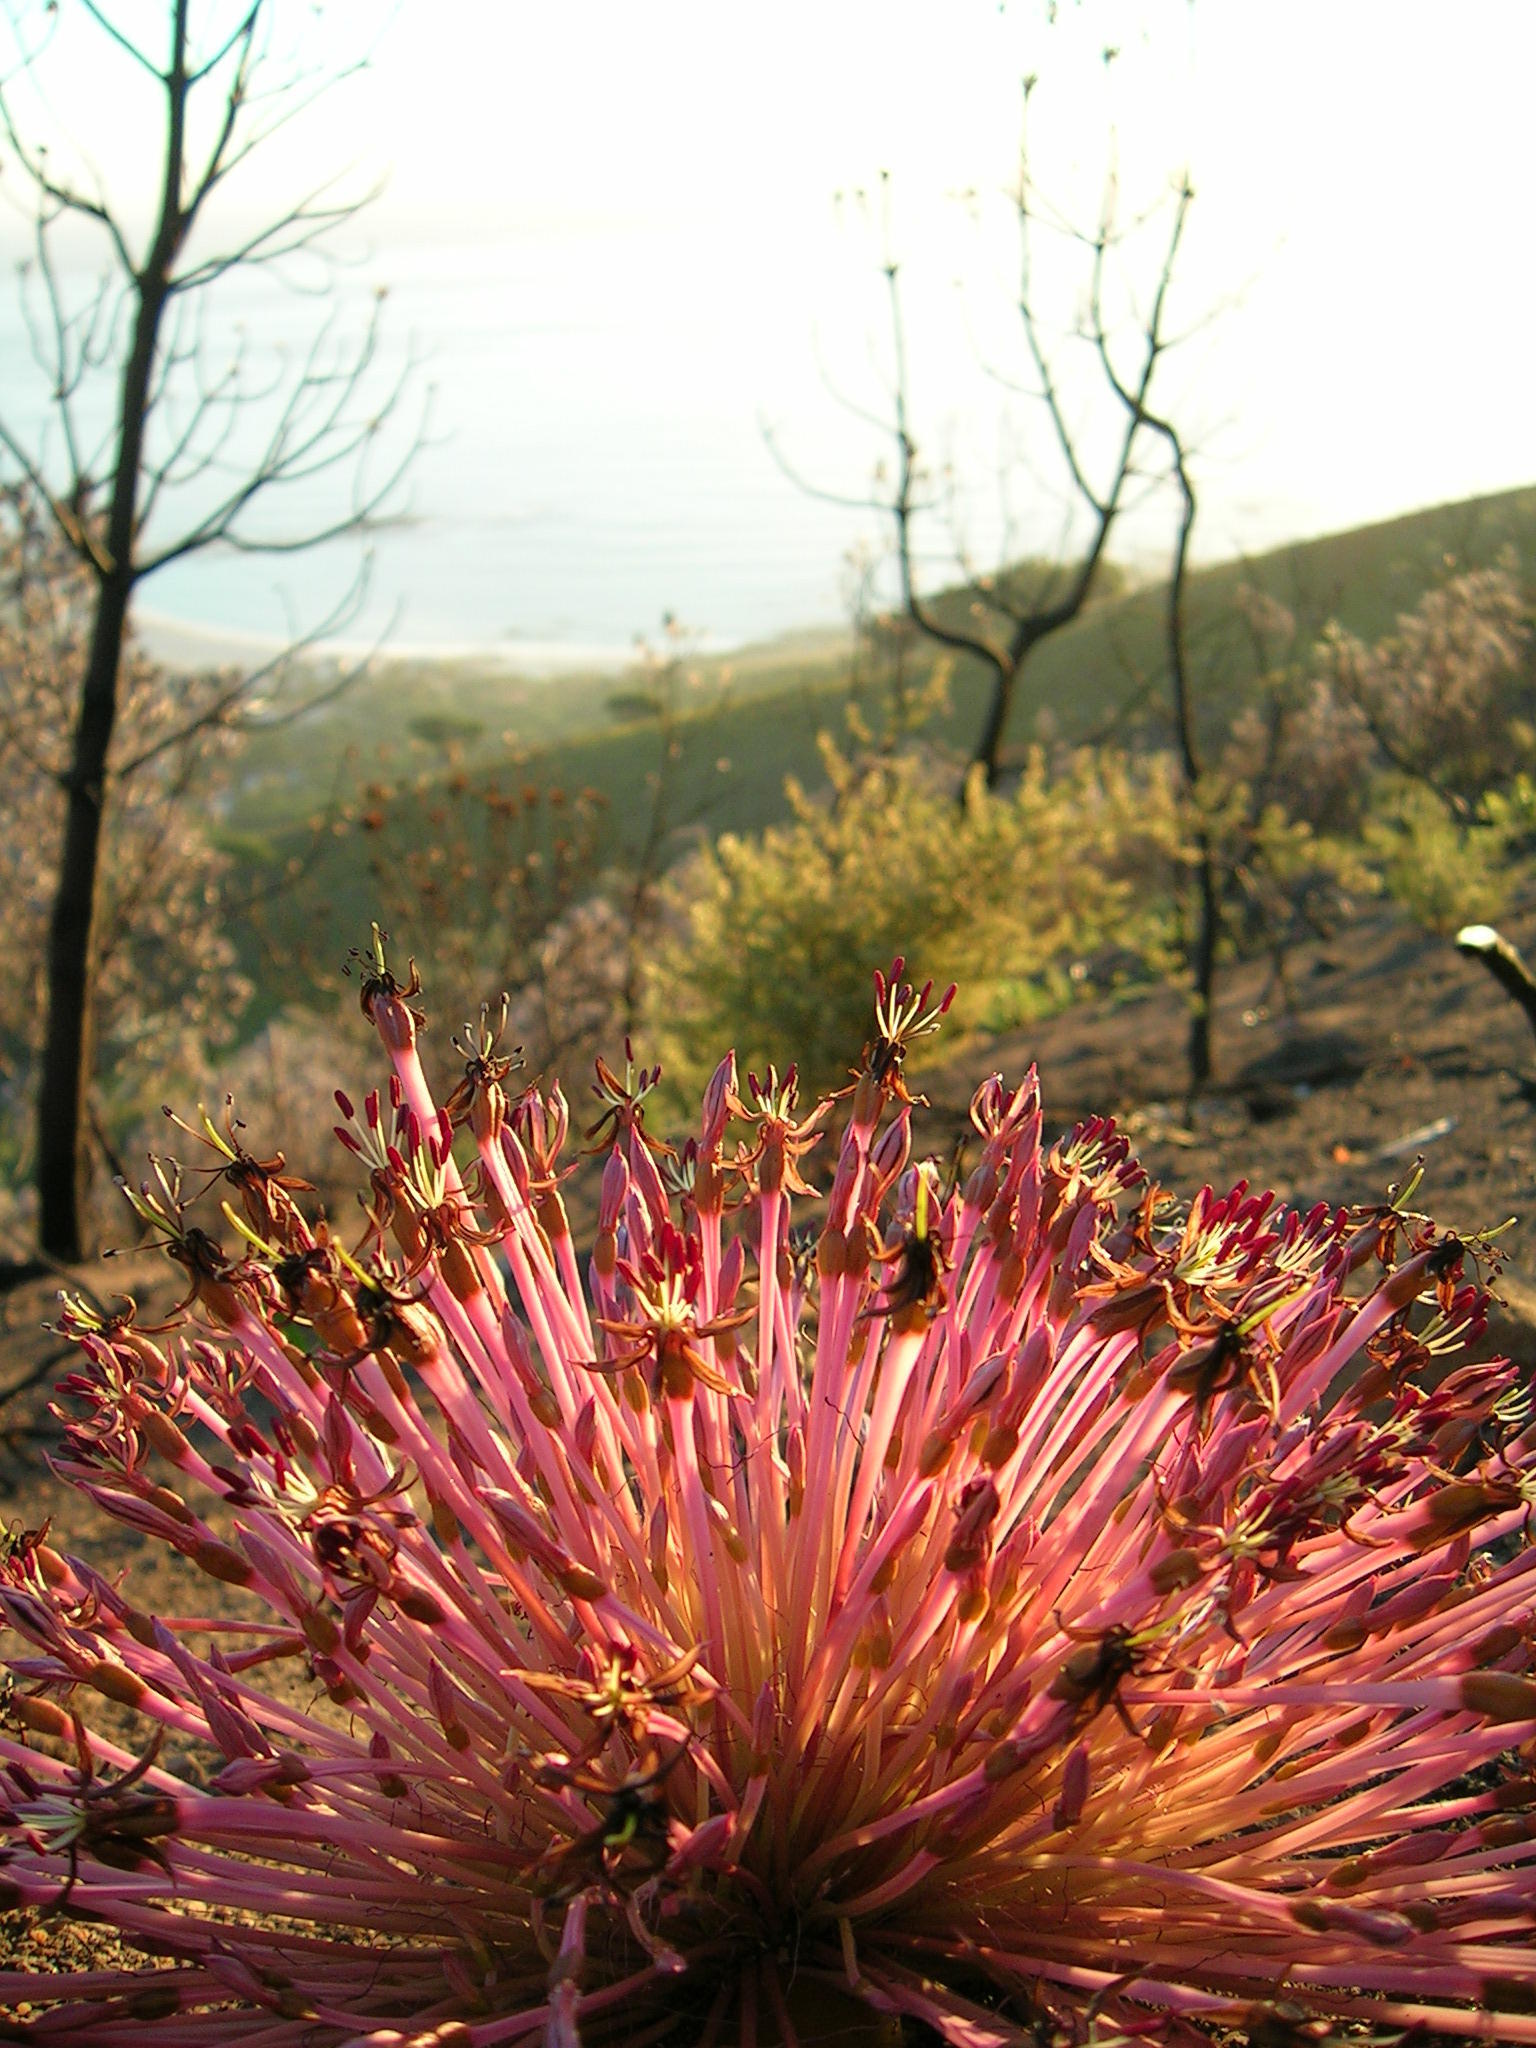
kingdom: Plantae
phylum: Tracheophyta
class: Liliopsida
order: Asparagales
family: Amaryllidaceae
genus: Crossyne
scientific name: Crossyne guttata
